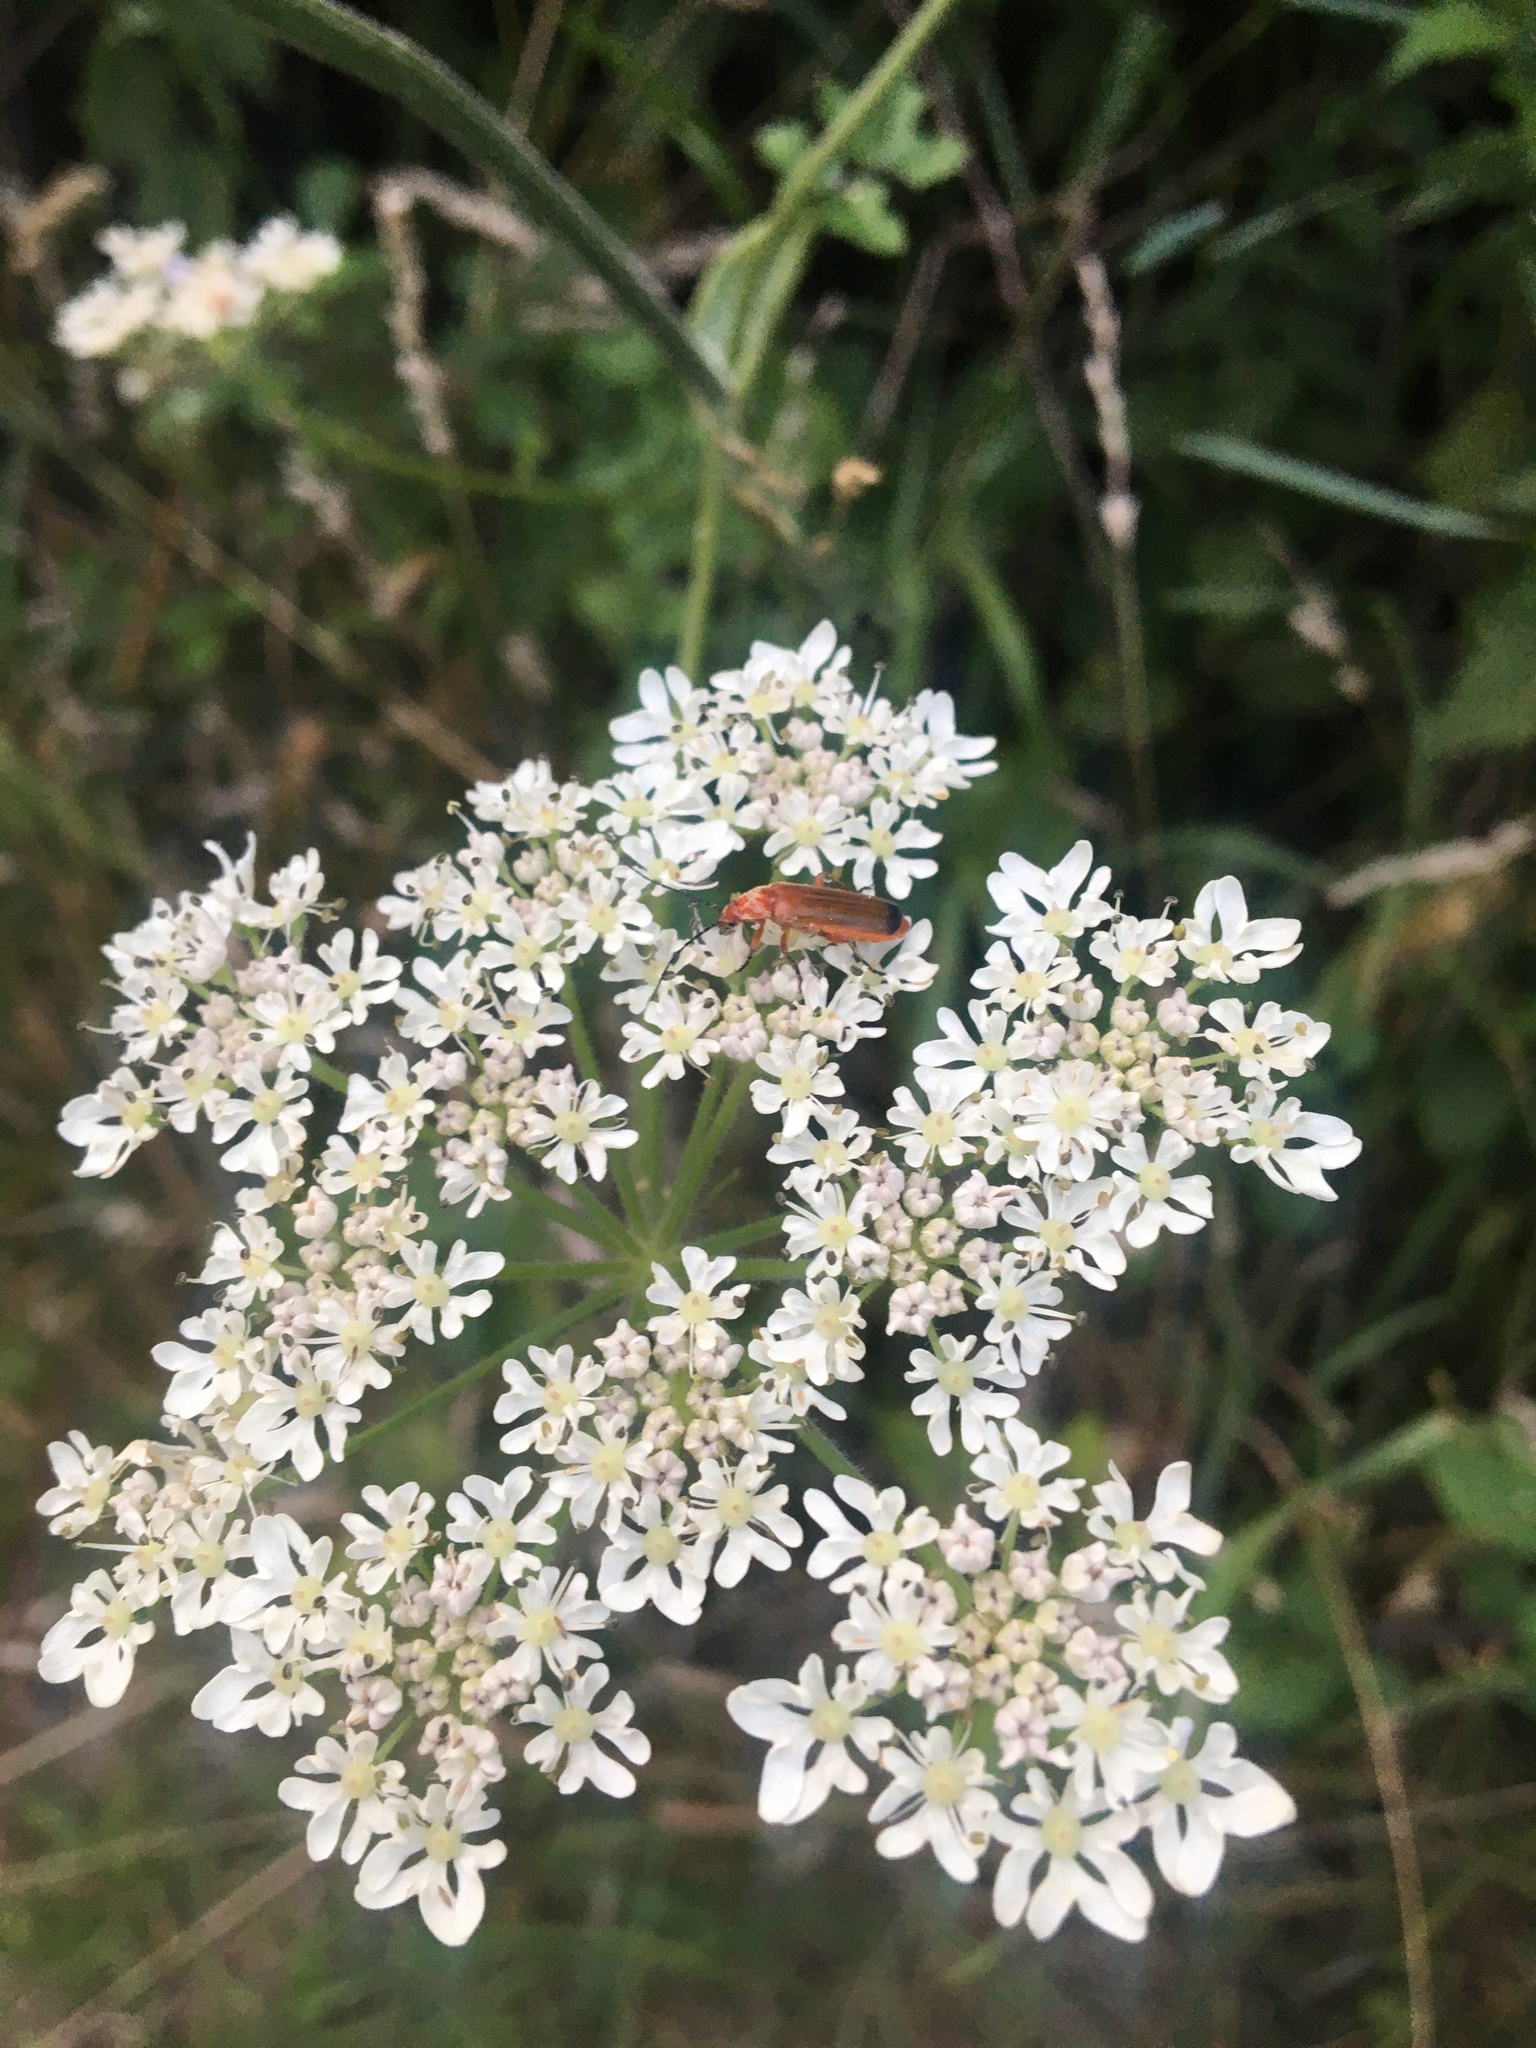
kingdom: Animalia
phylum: Arthropoda
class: Insecta
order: Coleoptera
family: Cantharidae
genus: Rhagonycha
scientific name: Rhagonycha fulva
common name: Common red soldier beetle
